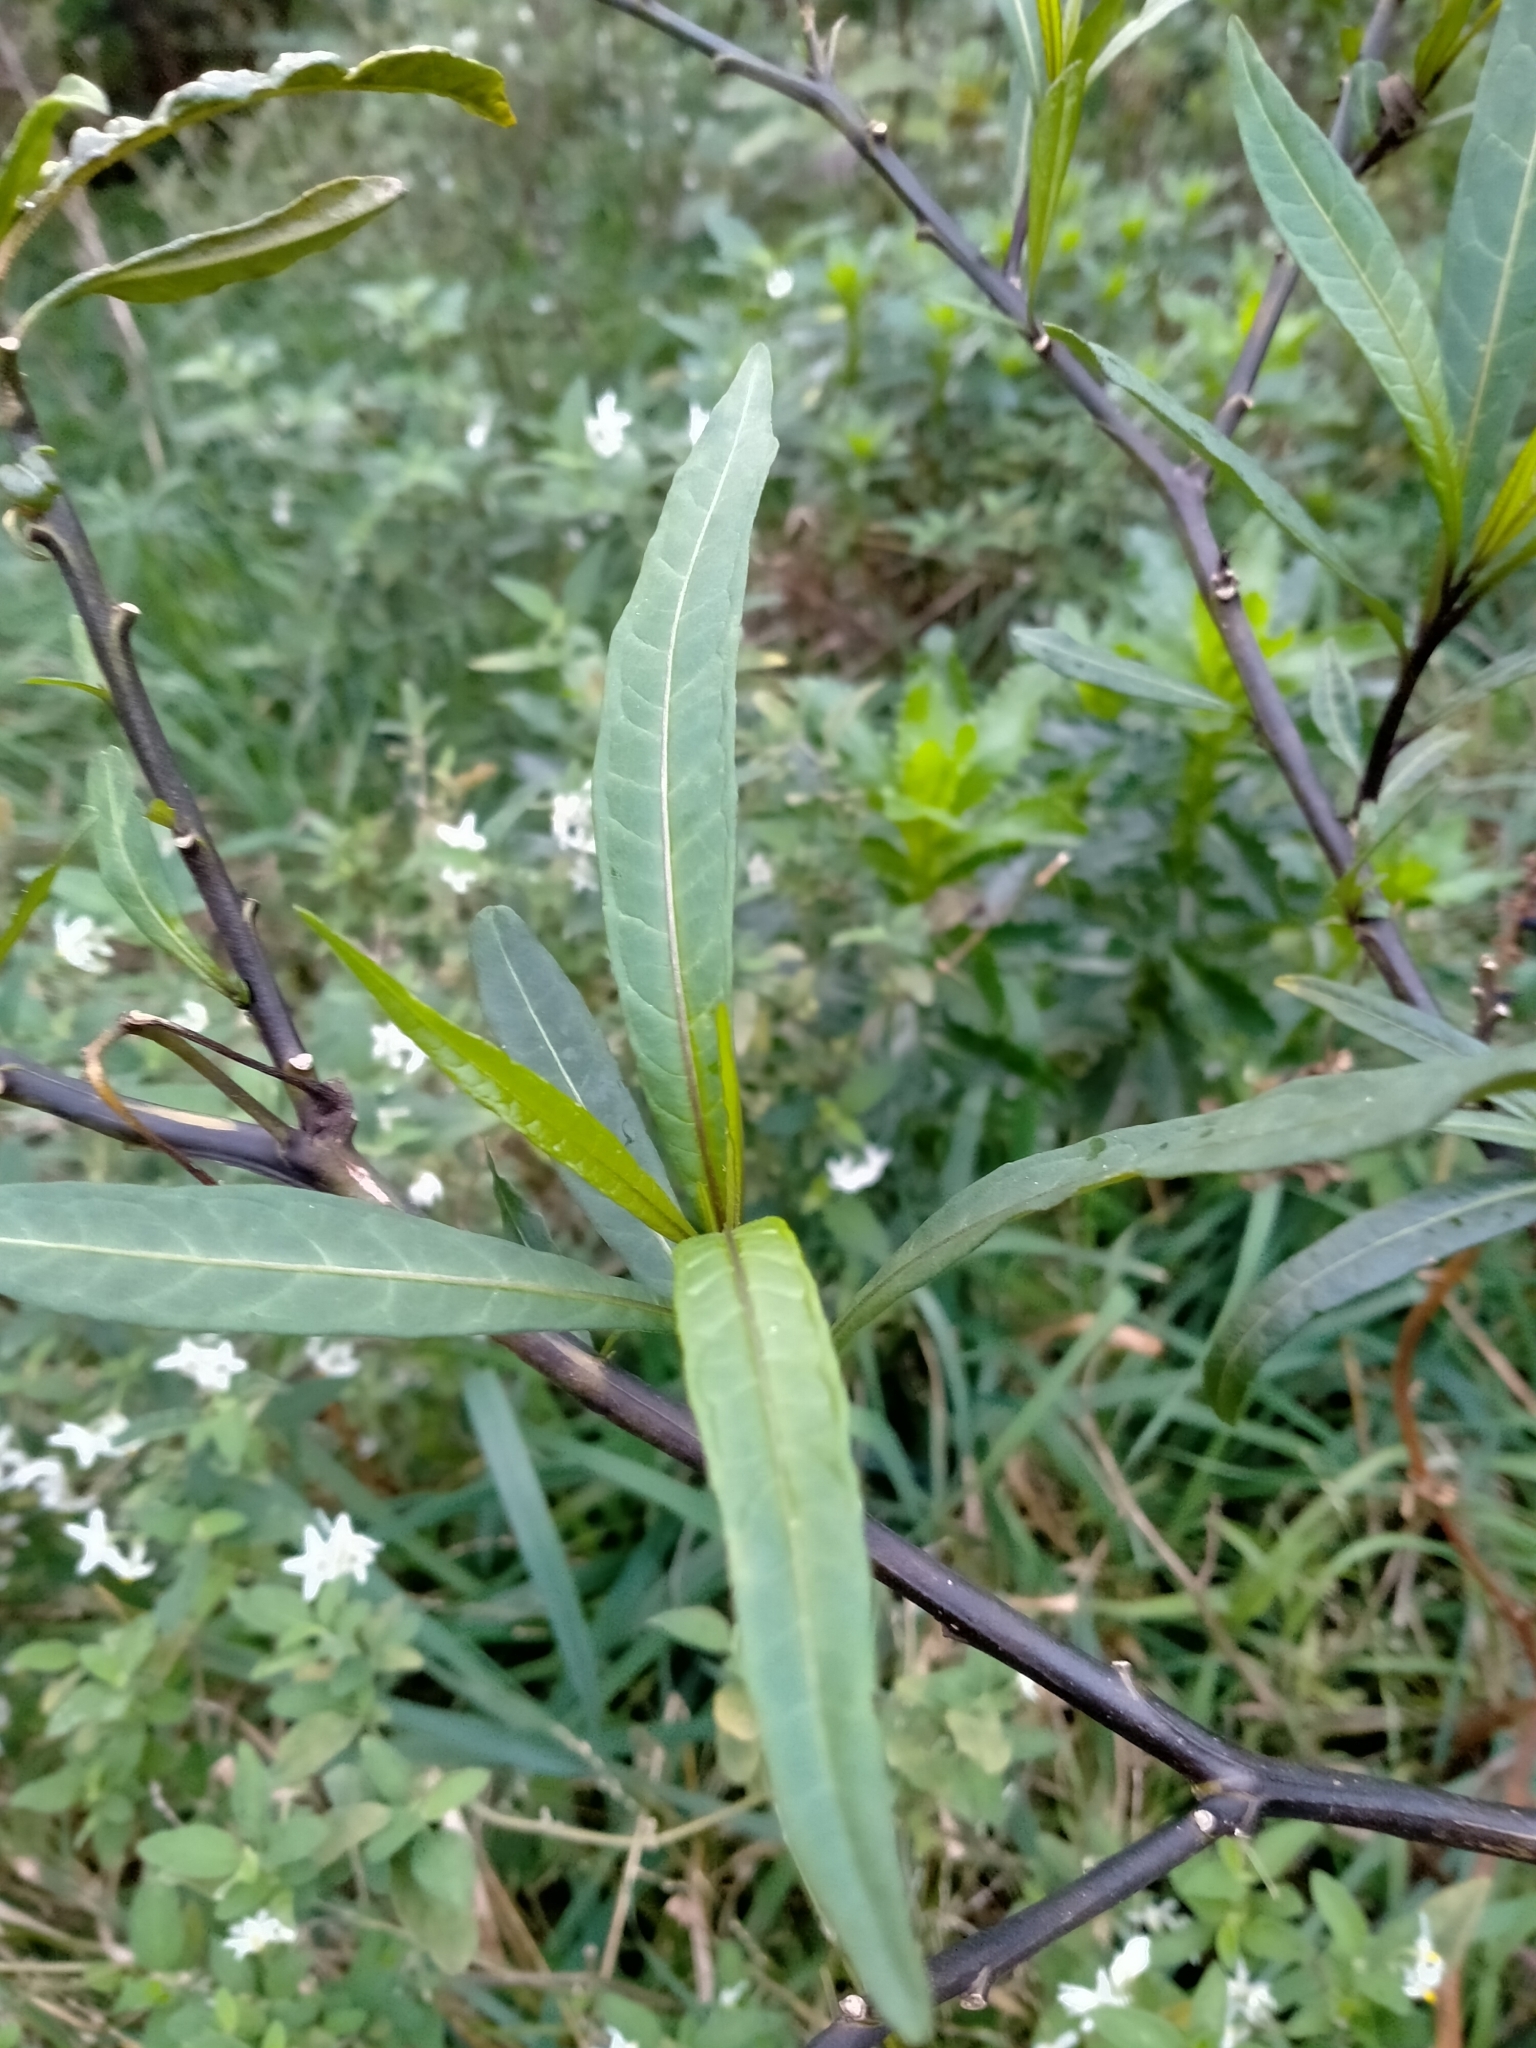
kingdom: Plantae
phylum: Tracheophyta
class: Magnoliopsida
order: Solanales
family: Solanaceae
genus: Solanum
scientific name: Solanum laciniatum
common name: Kangaroo-apple
